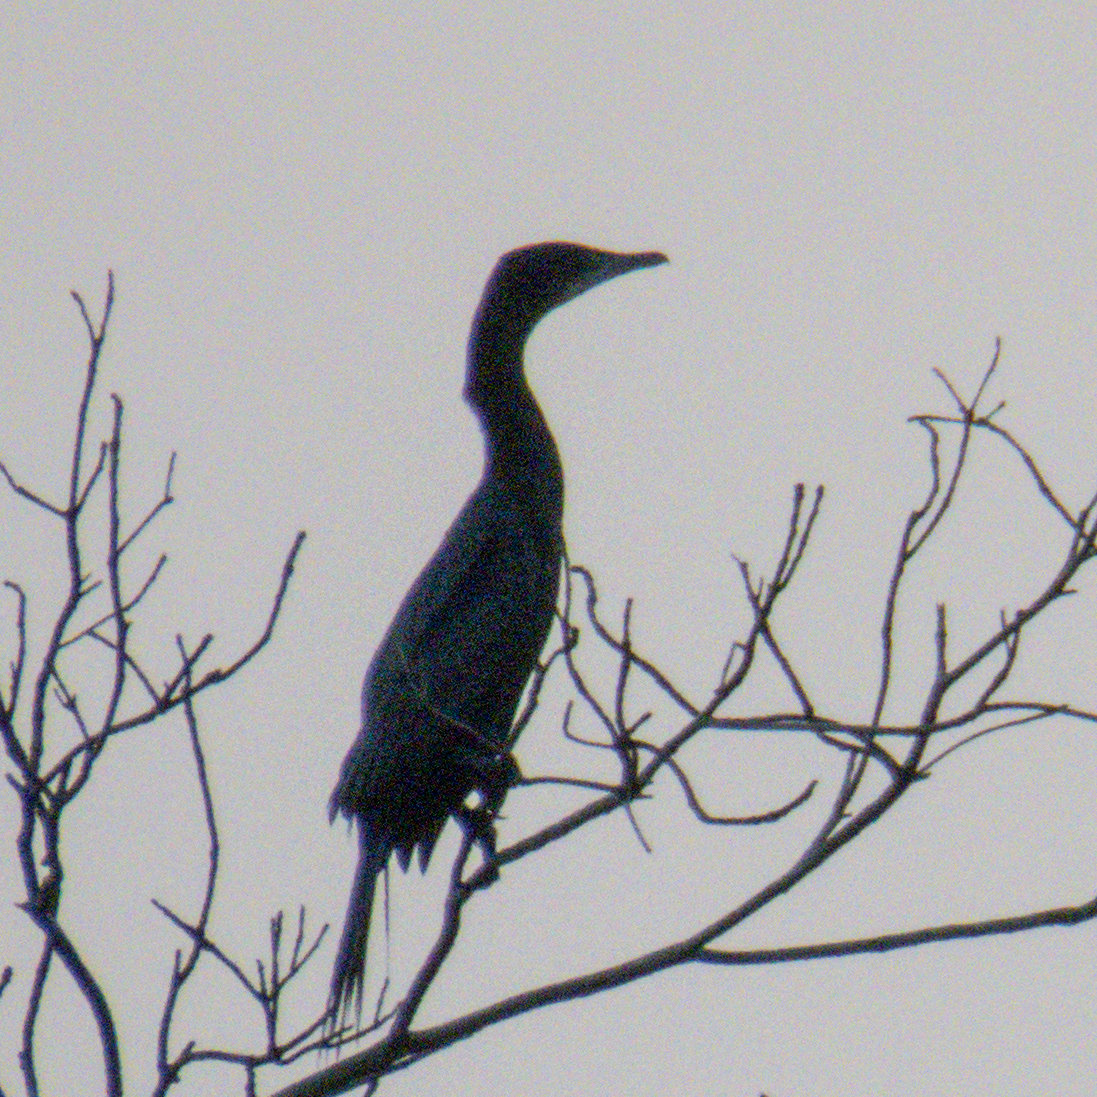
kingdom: Animalia
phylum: Chordata
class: Aves
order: Suliformes
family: Phalacrocoracidae
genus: Microcarbo
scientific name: Microcarbo niger
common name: Little cormorant
